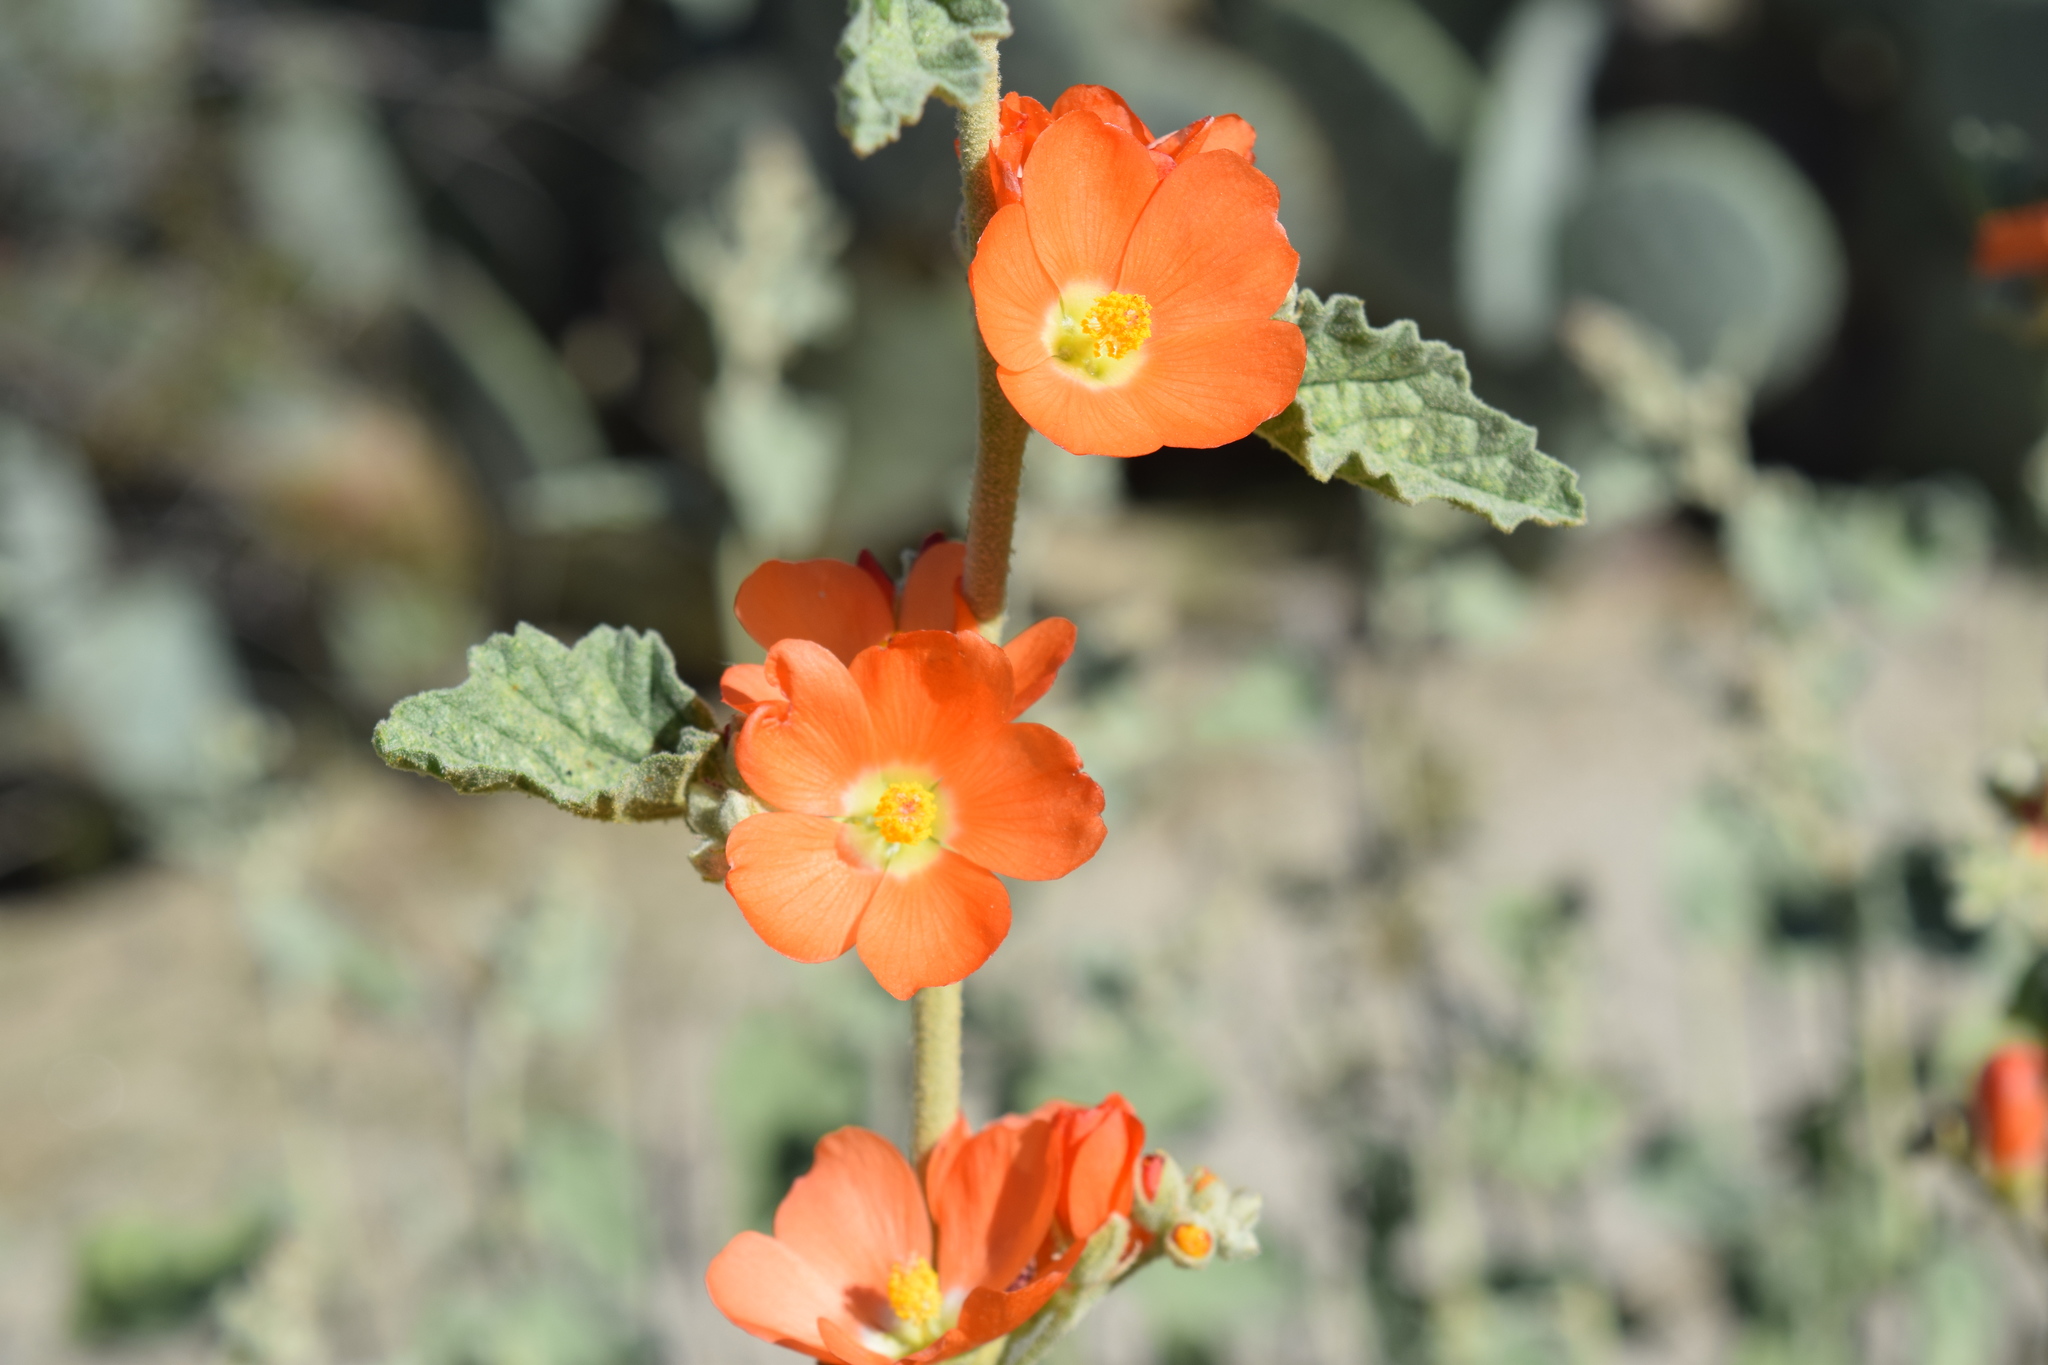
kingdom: Plantae
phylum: Tracheophyta
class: Magnoliopsida
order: Malvales
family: Malvaceae
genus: Sphaeralcea
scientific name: Sphaeralcea ambigua
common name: Apricot globe-mallow
